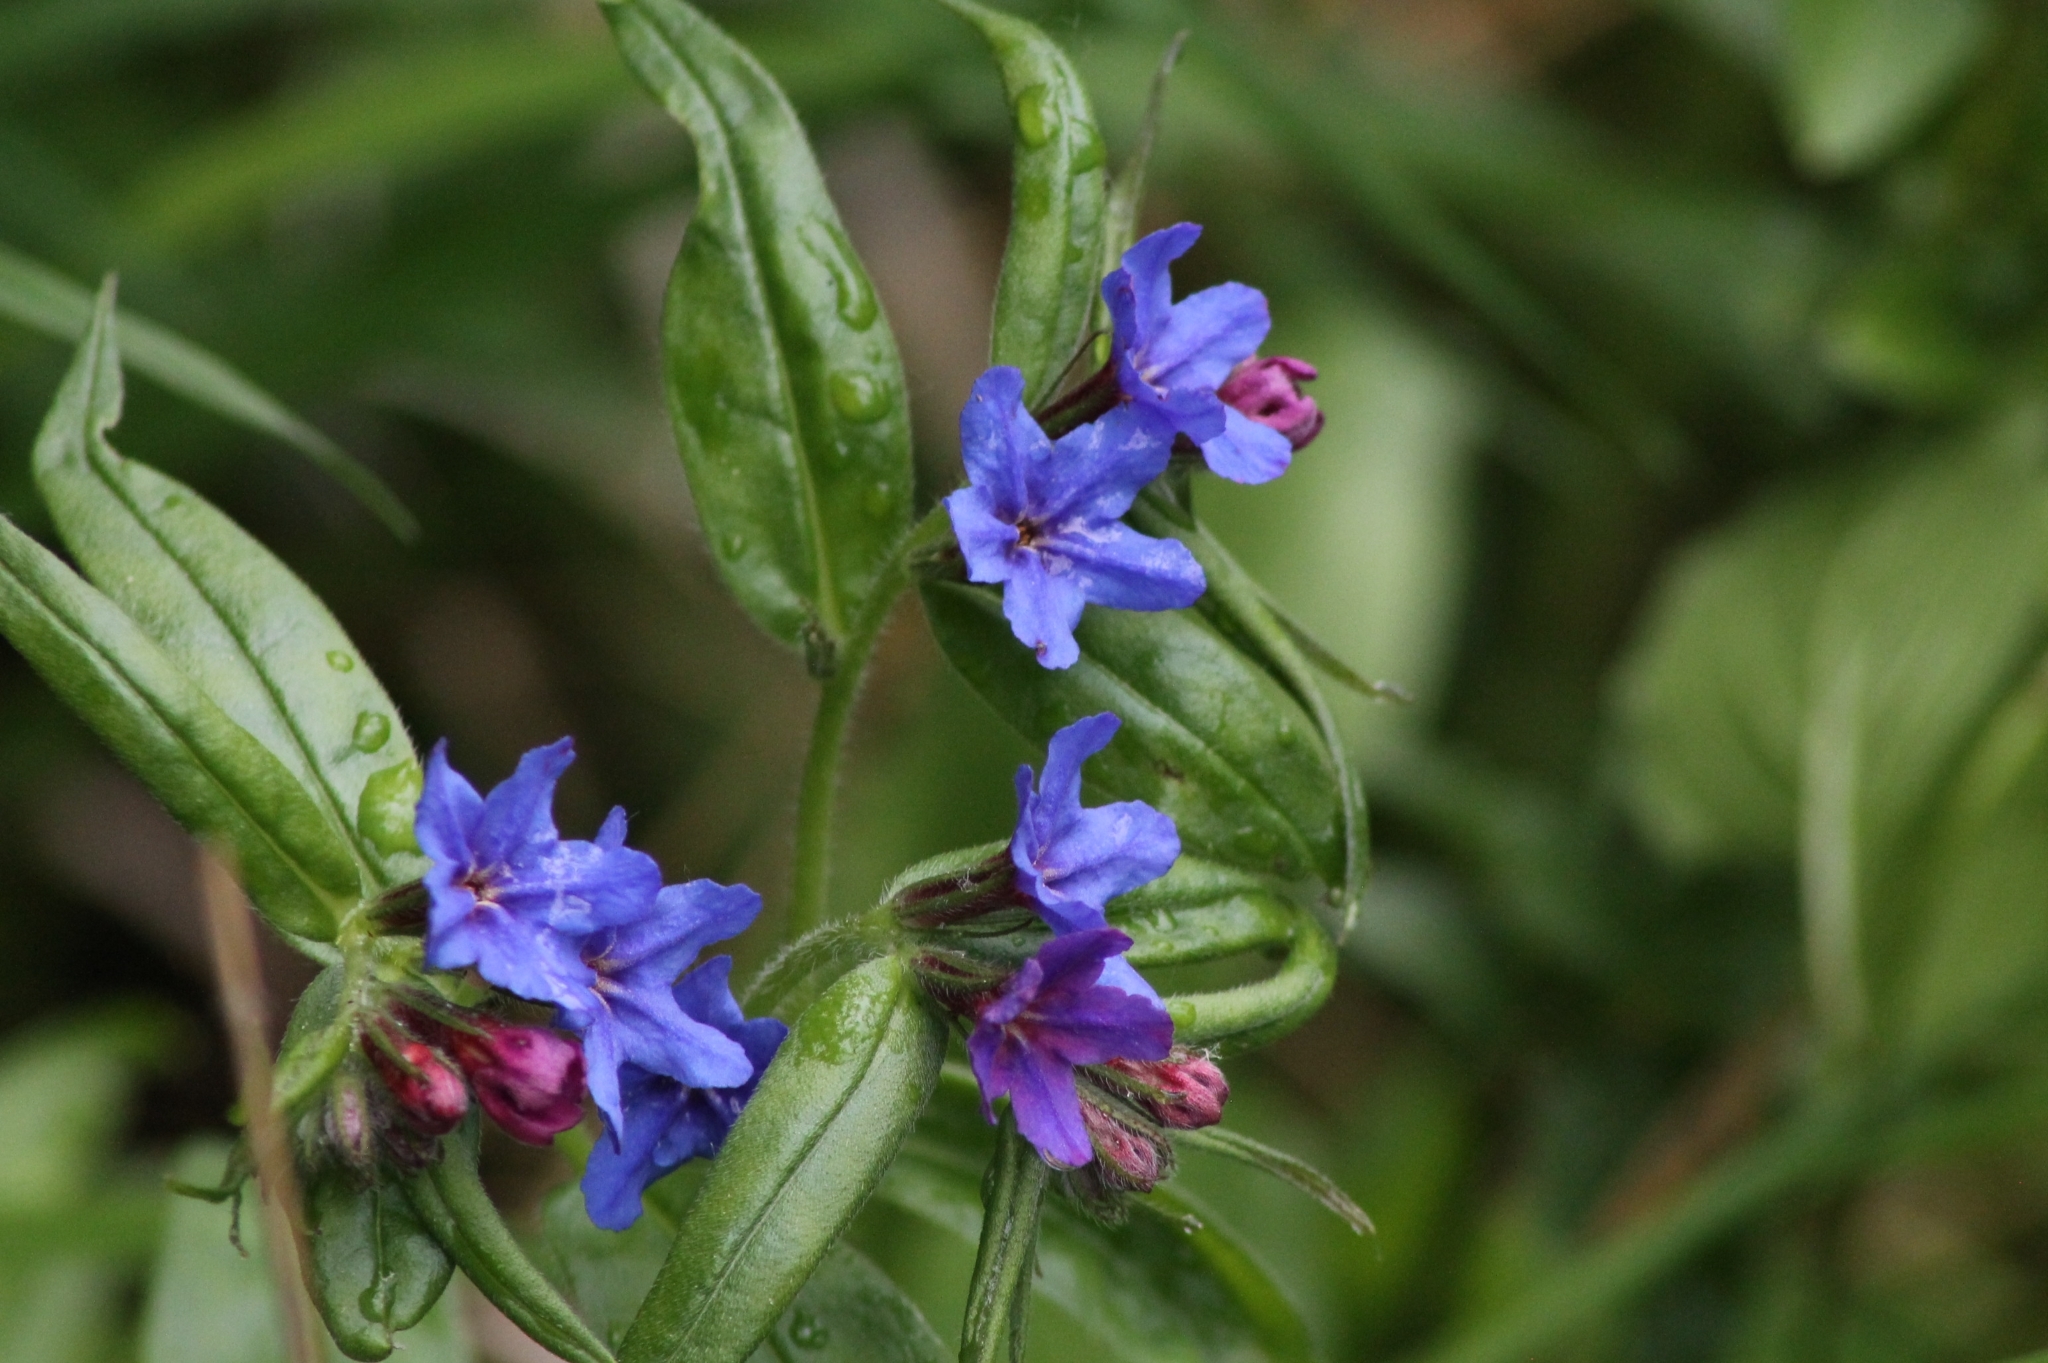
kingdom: Plantae
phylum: Tracheophyta
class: Magnoliopsida
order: Boraginales
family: Boraginaceae
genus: Aegonychon
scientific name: Aegonychon purpurocaeruleum
